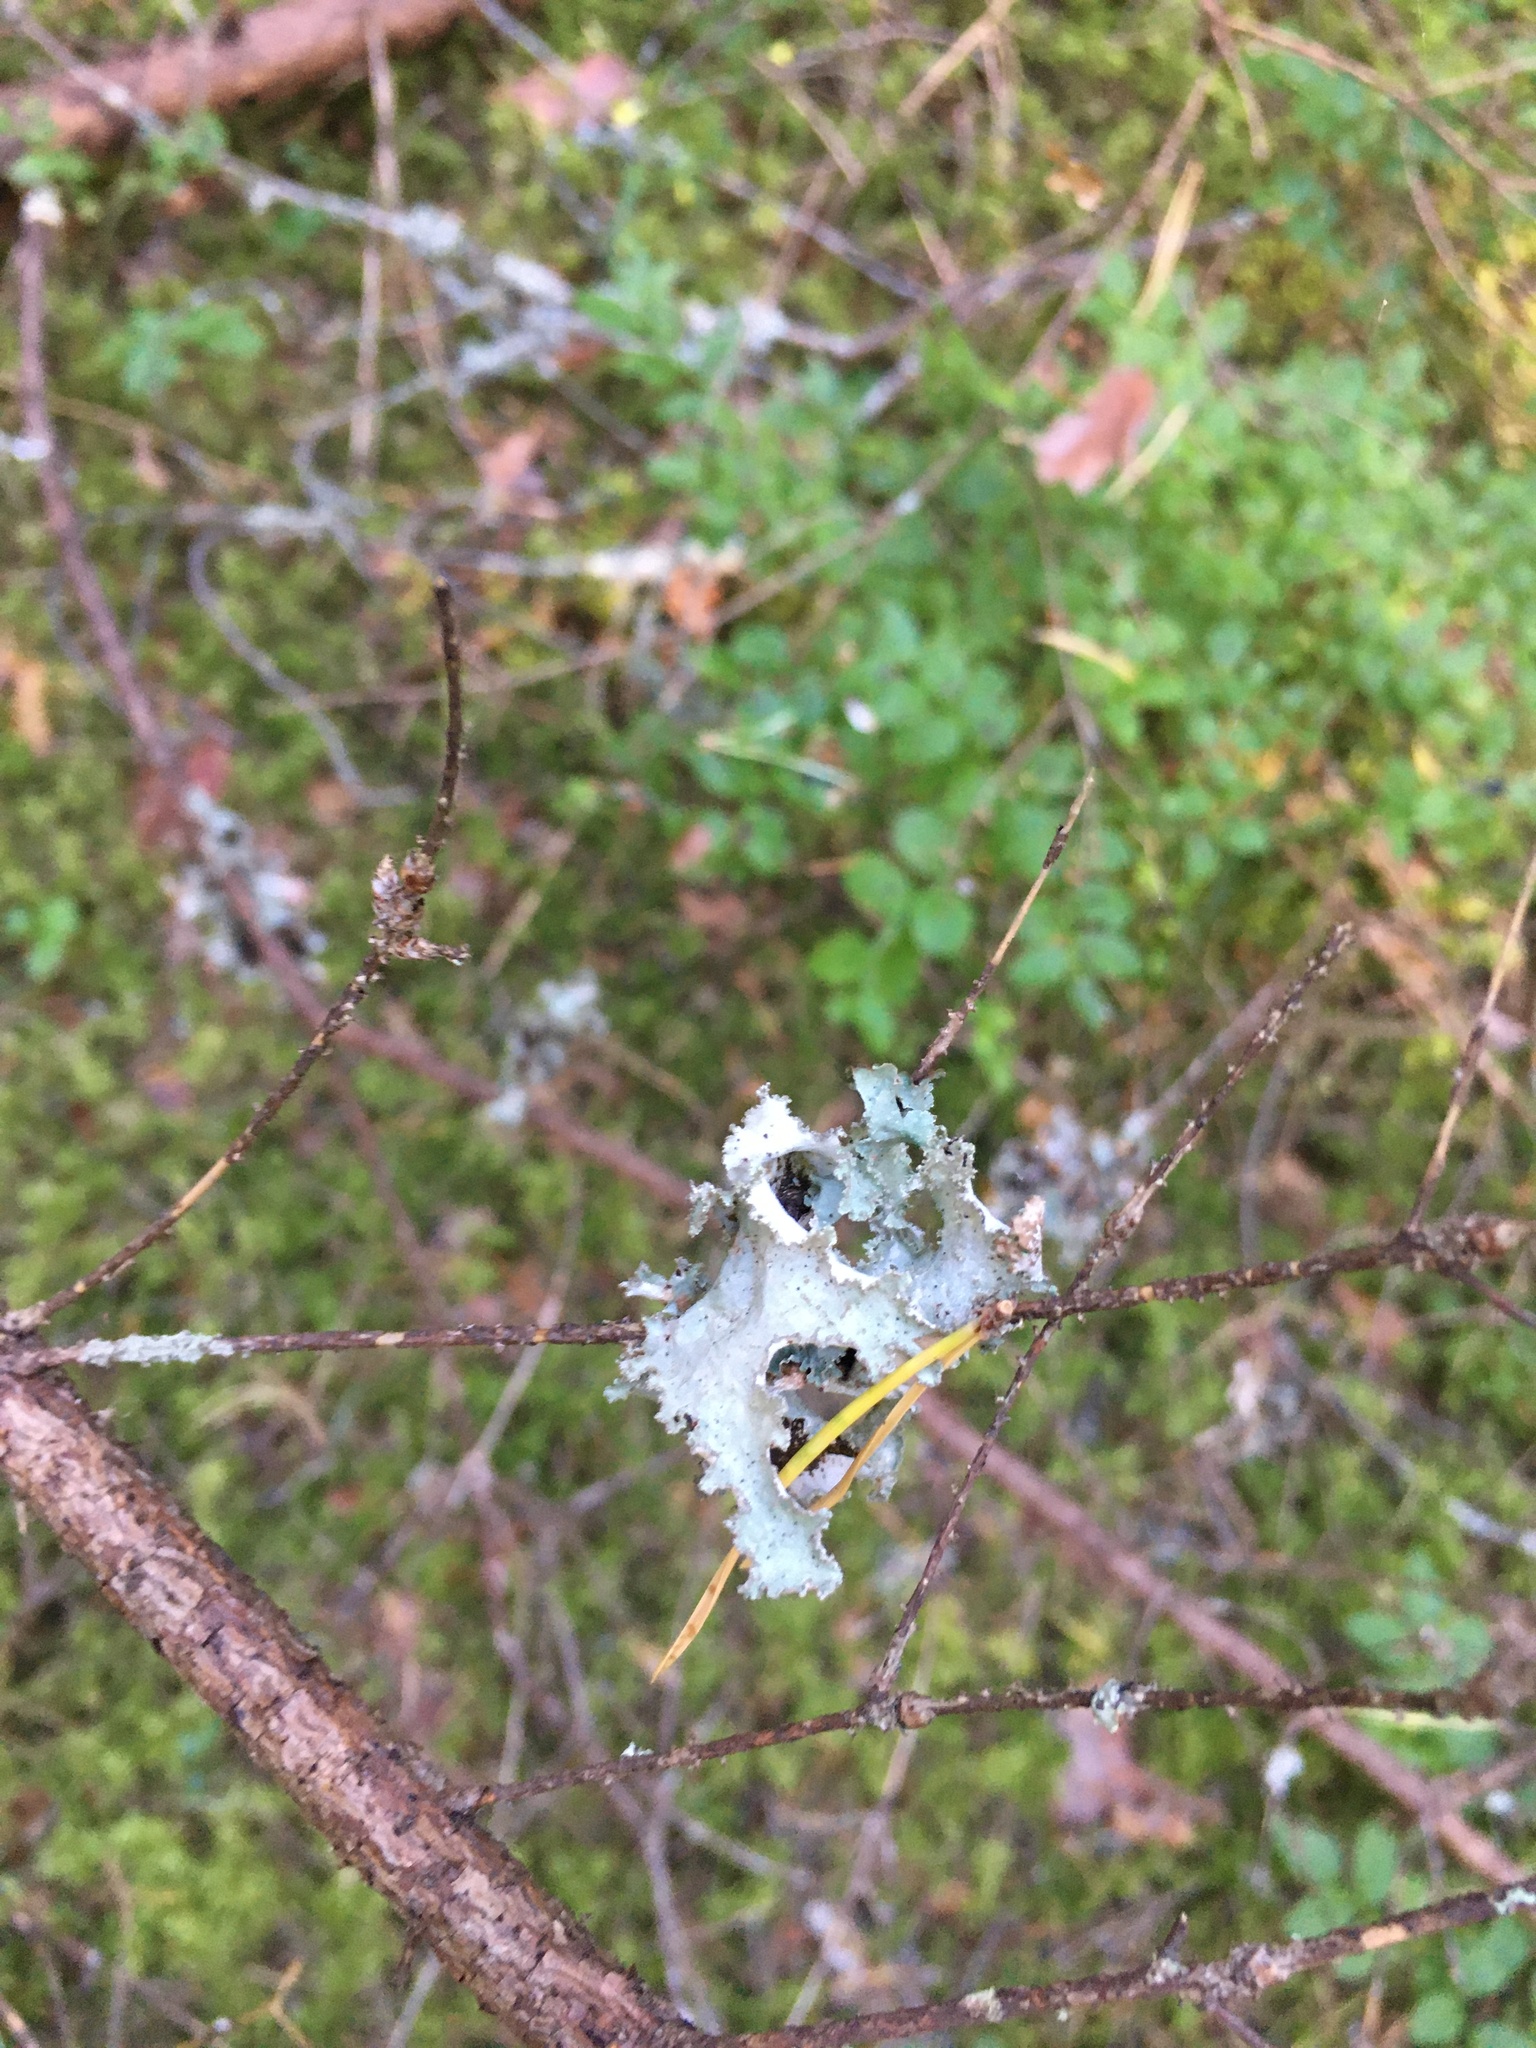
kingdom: Fungi
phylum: Ascomycota
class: Lecanoromycetes
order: Lecanorales
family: Parmeliaceae
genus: Platismatia
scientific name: Platismatia glauca
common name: Varied rag lichen
